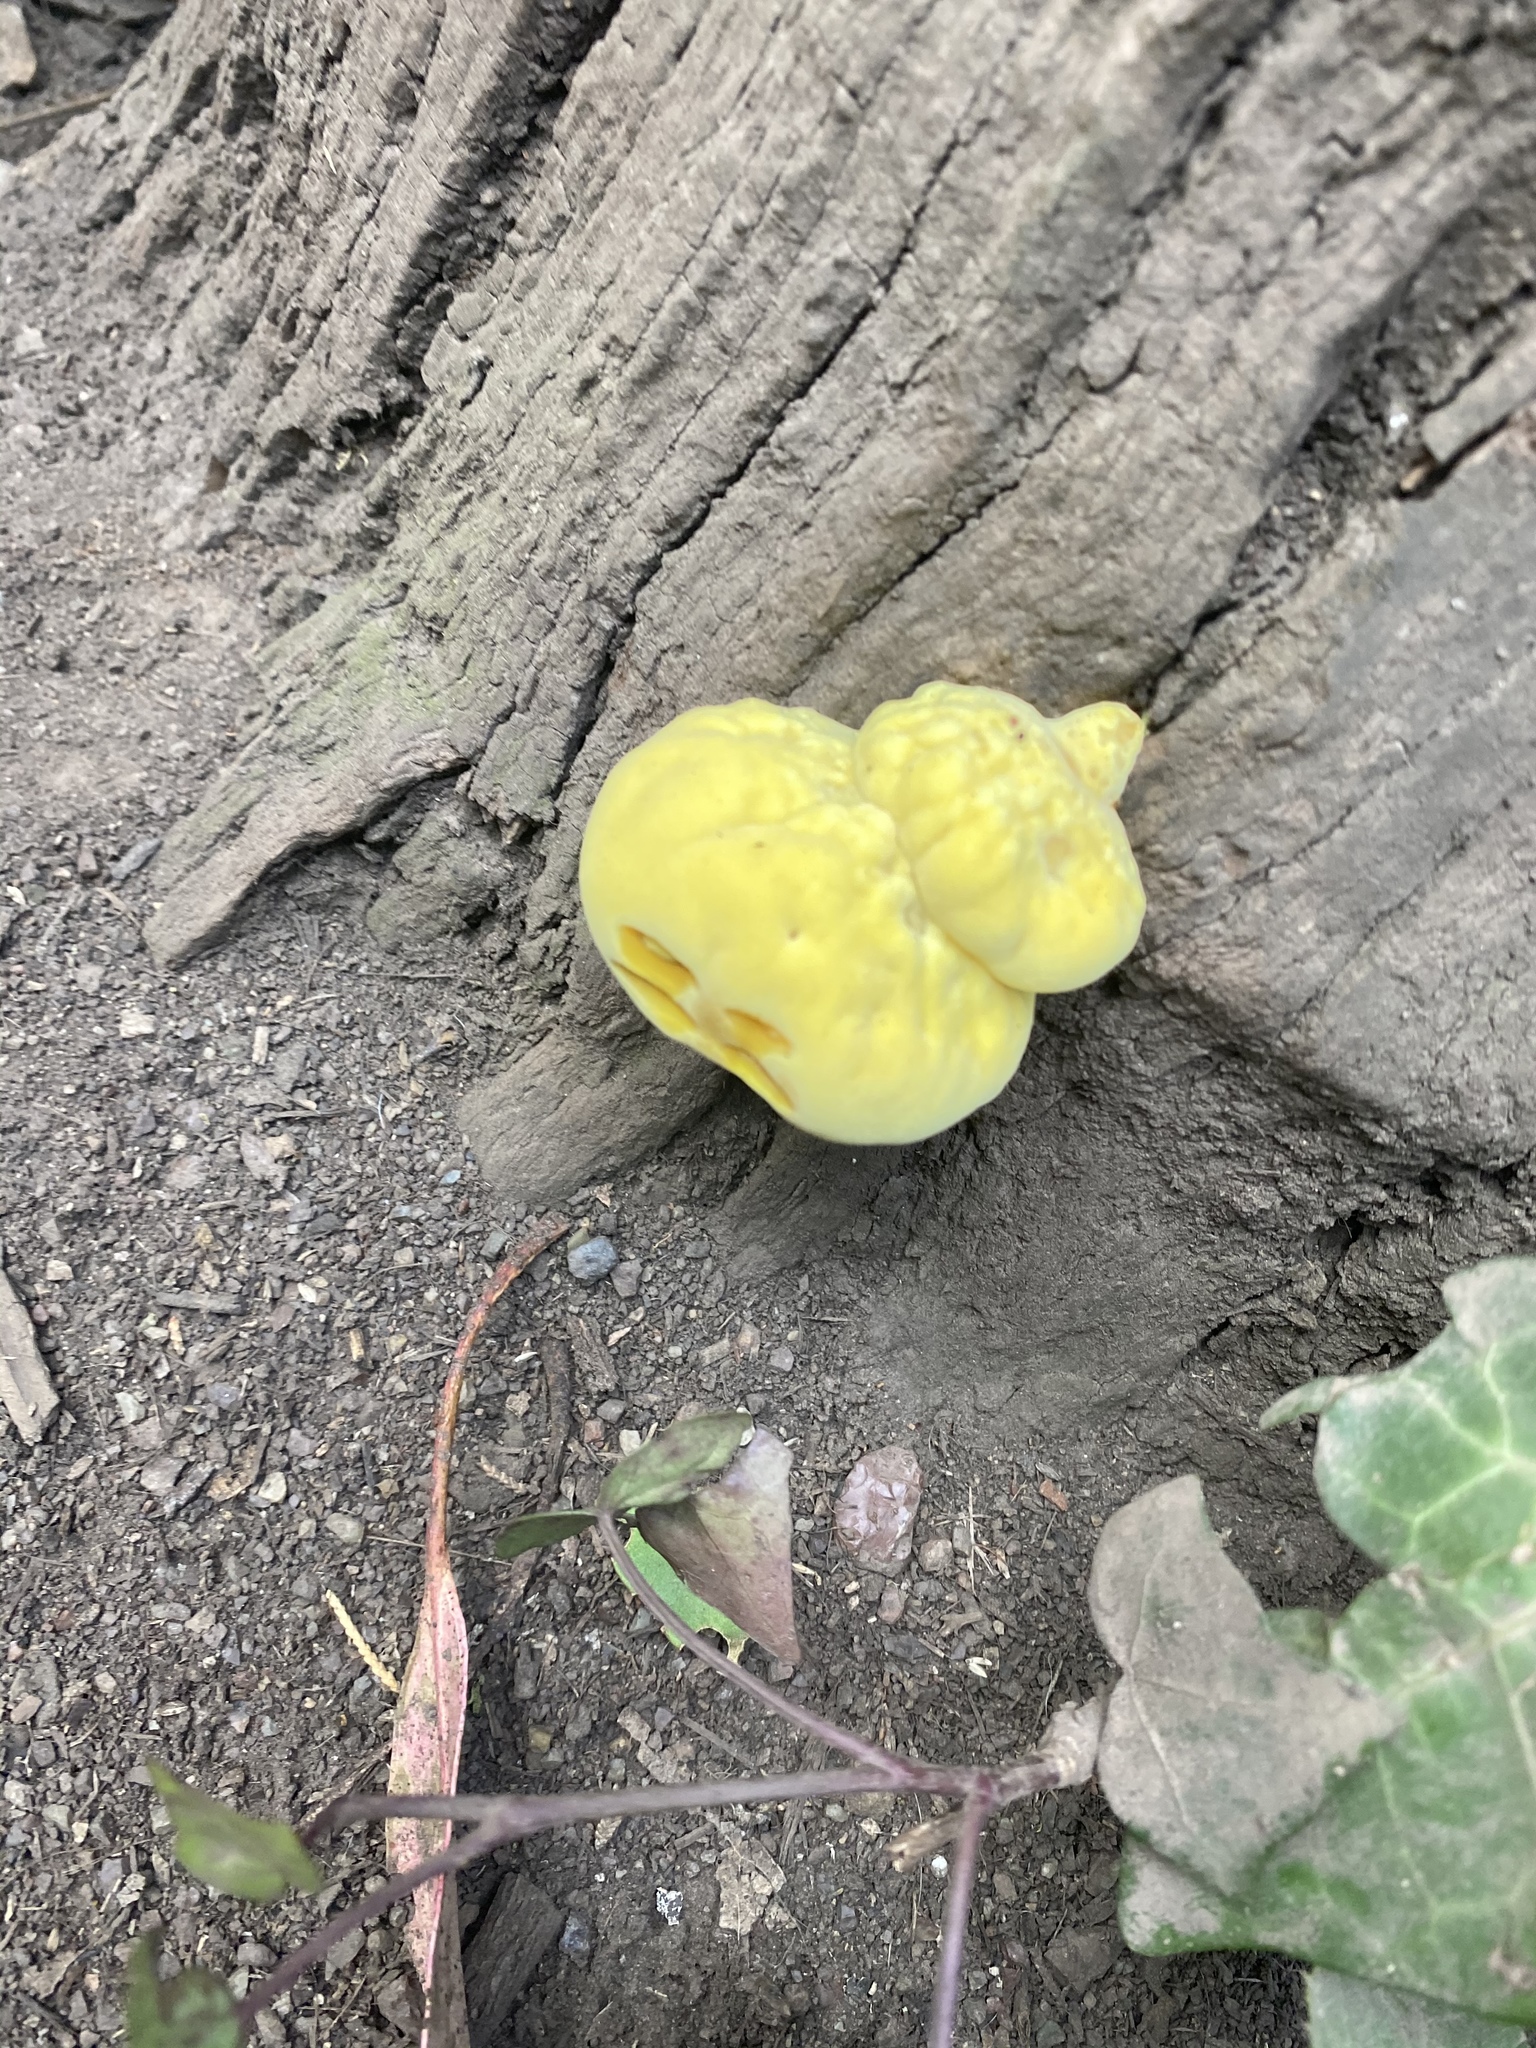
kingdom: Fungi
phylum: Basidiomycota
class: Agaricomycetes
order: Polyporales
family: Laetiporaceae
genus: Laetiporus
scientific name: Laetiporus gilbertsonii
